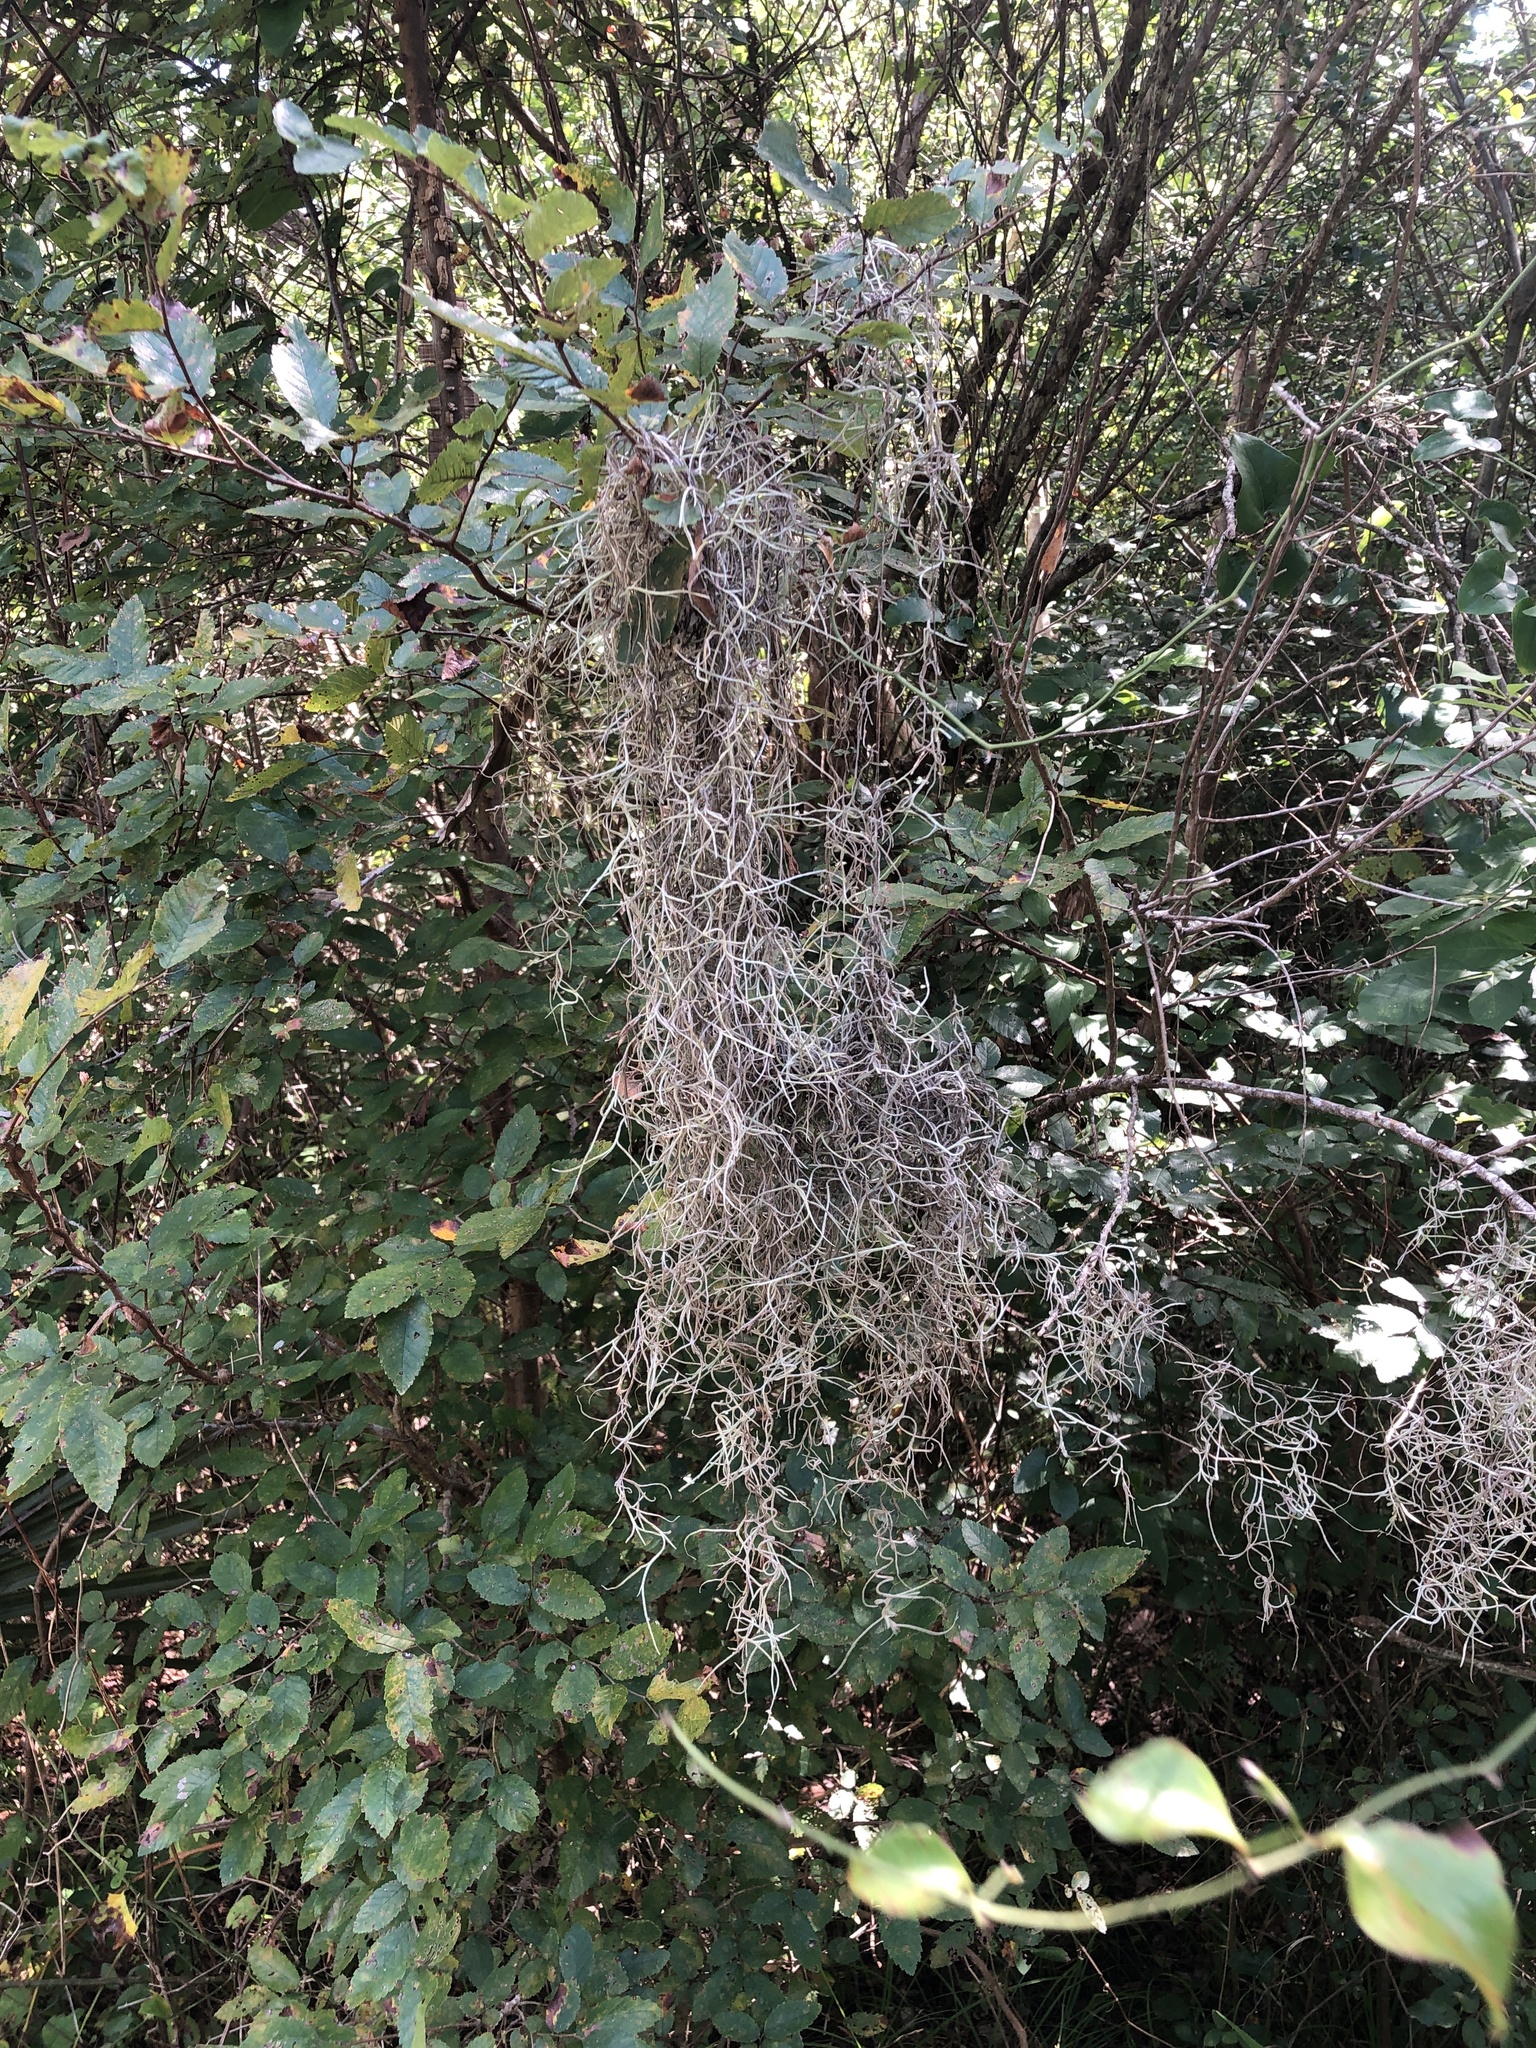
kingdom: Plantae
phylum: Tracheophyta
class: Liliopsida
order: Poales
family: Bromeliaceae
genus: Tillandsia
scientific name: Tillandsia usneoides
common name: Spanish moss
